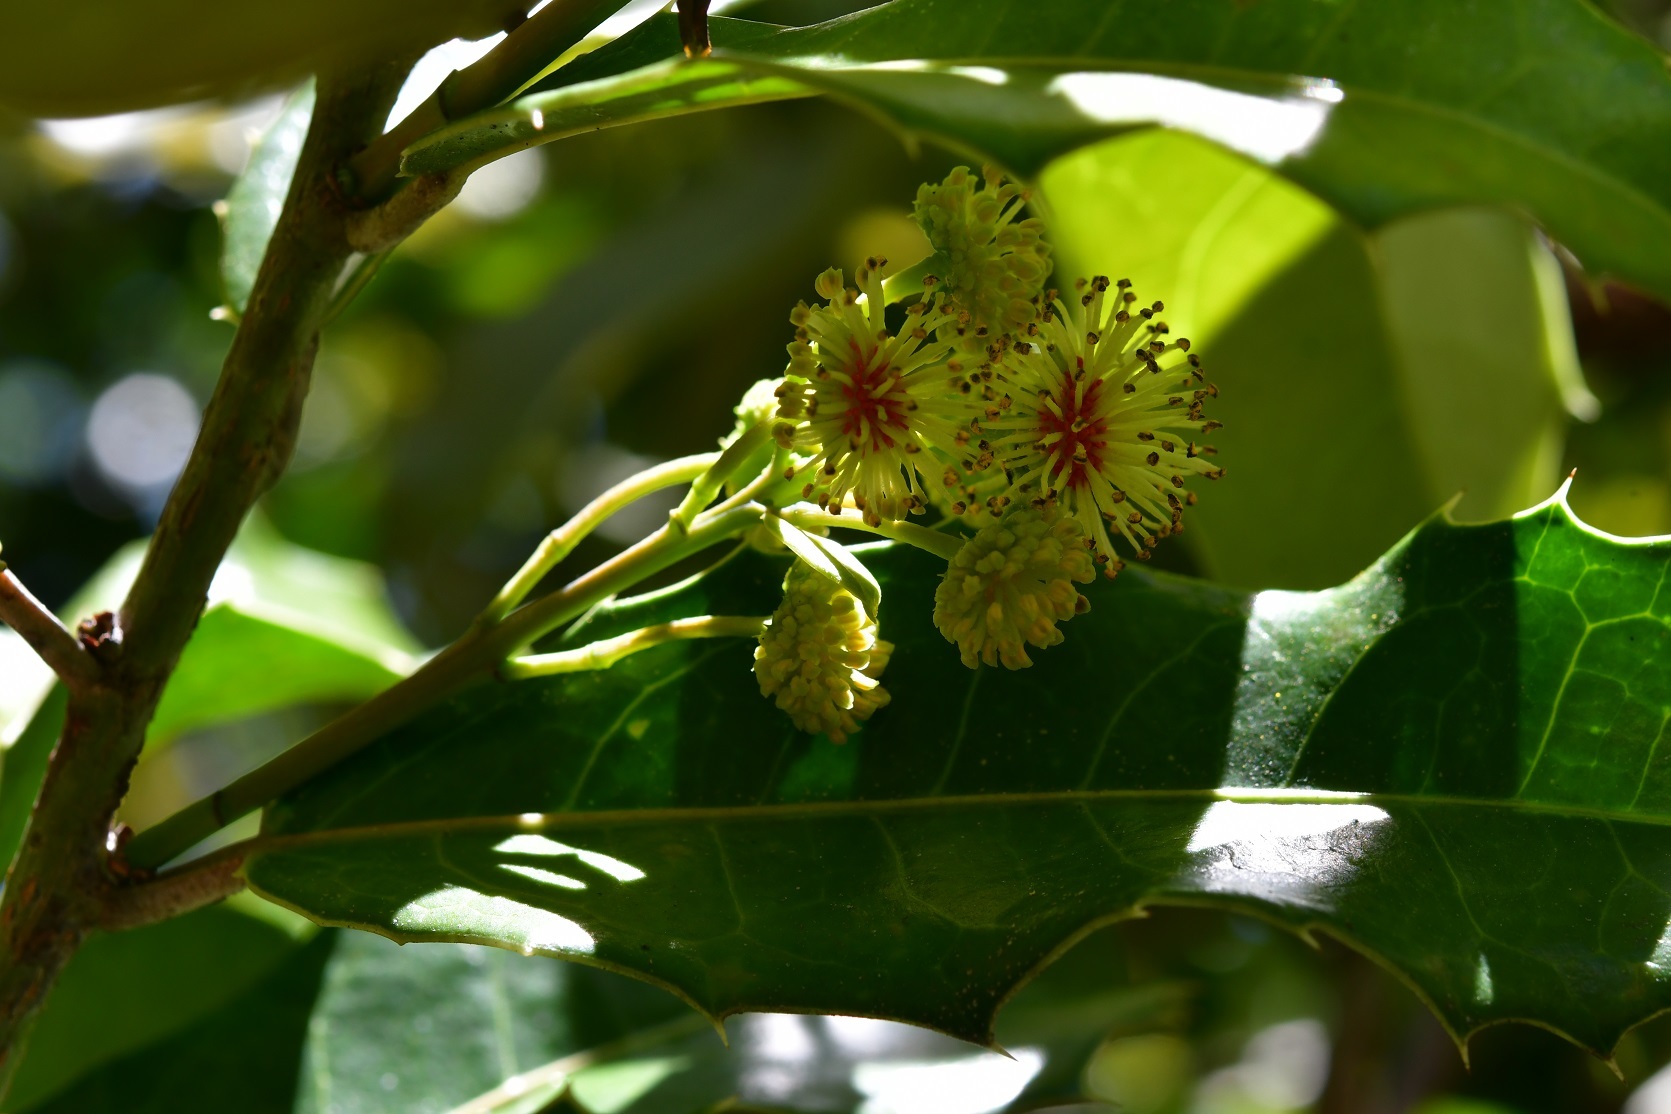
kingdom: Plantae
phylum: Tracheophyta
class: Magnoliopsida
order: Malpighiales
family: Salicaceae
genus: Olmediella
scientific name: Olmediella betschleriana
